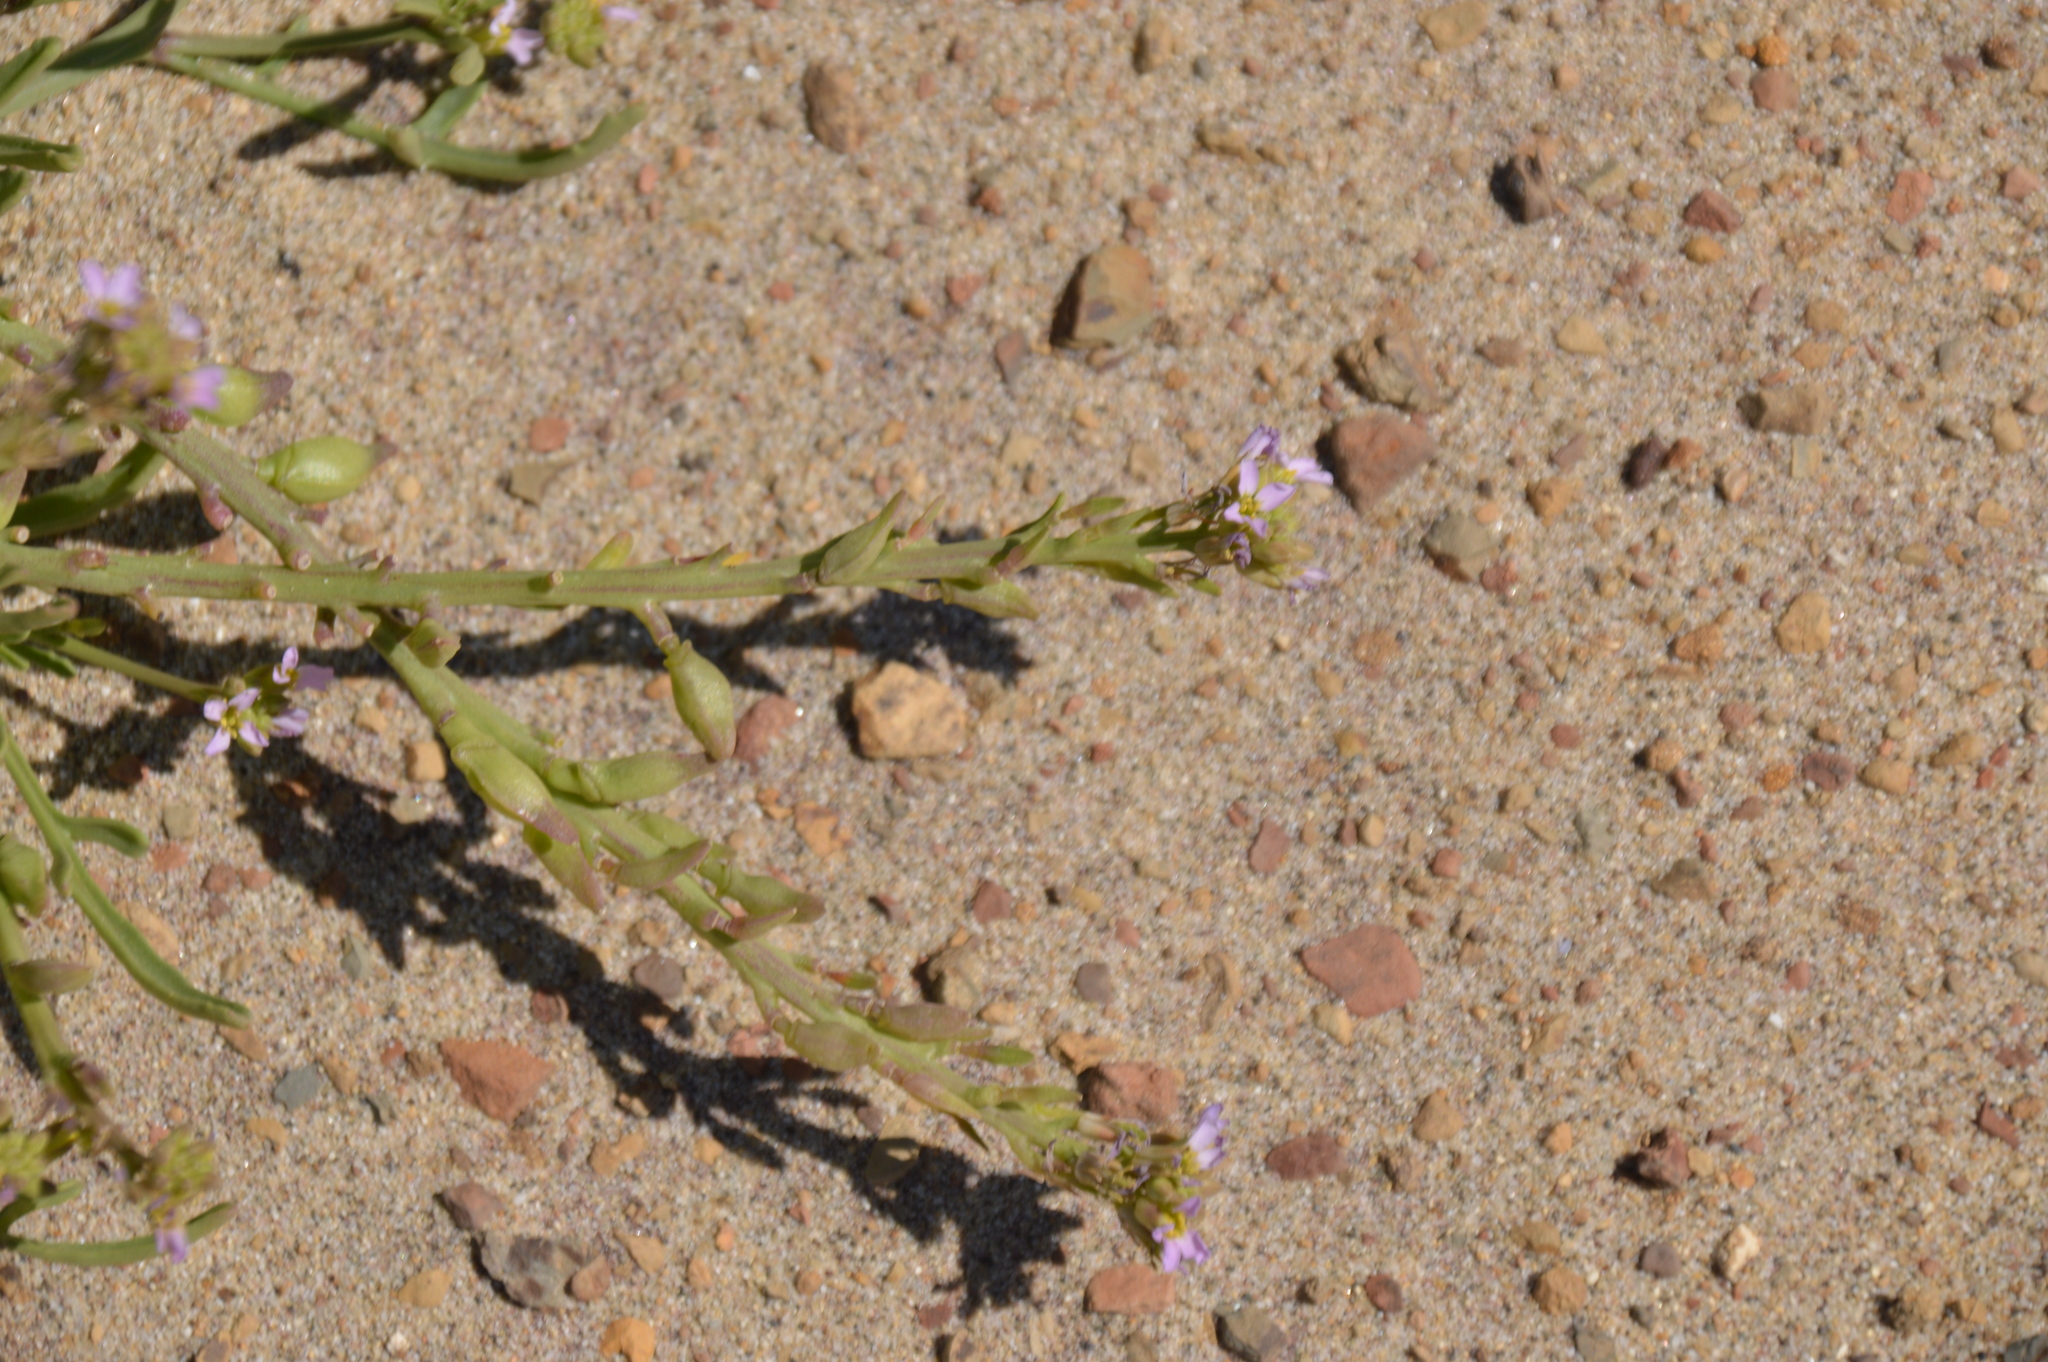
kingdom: Plantae
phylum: Tracheophyta
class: Magnoliopsida
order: Brassicales
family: Brassicaceae
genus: Cakile
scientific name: Cakile maritima
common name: Sea rocket
